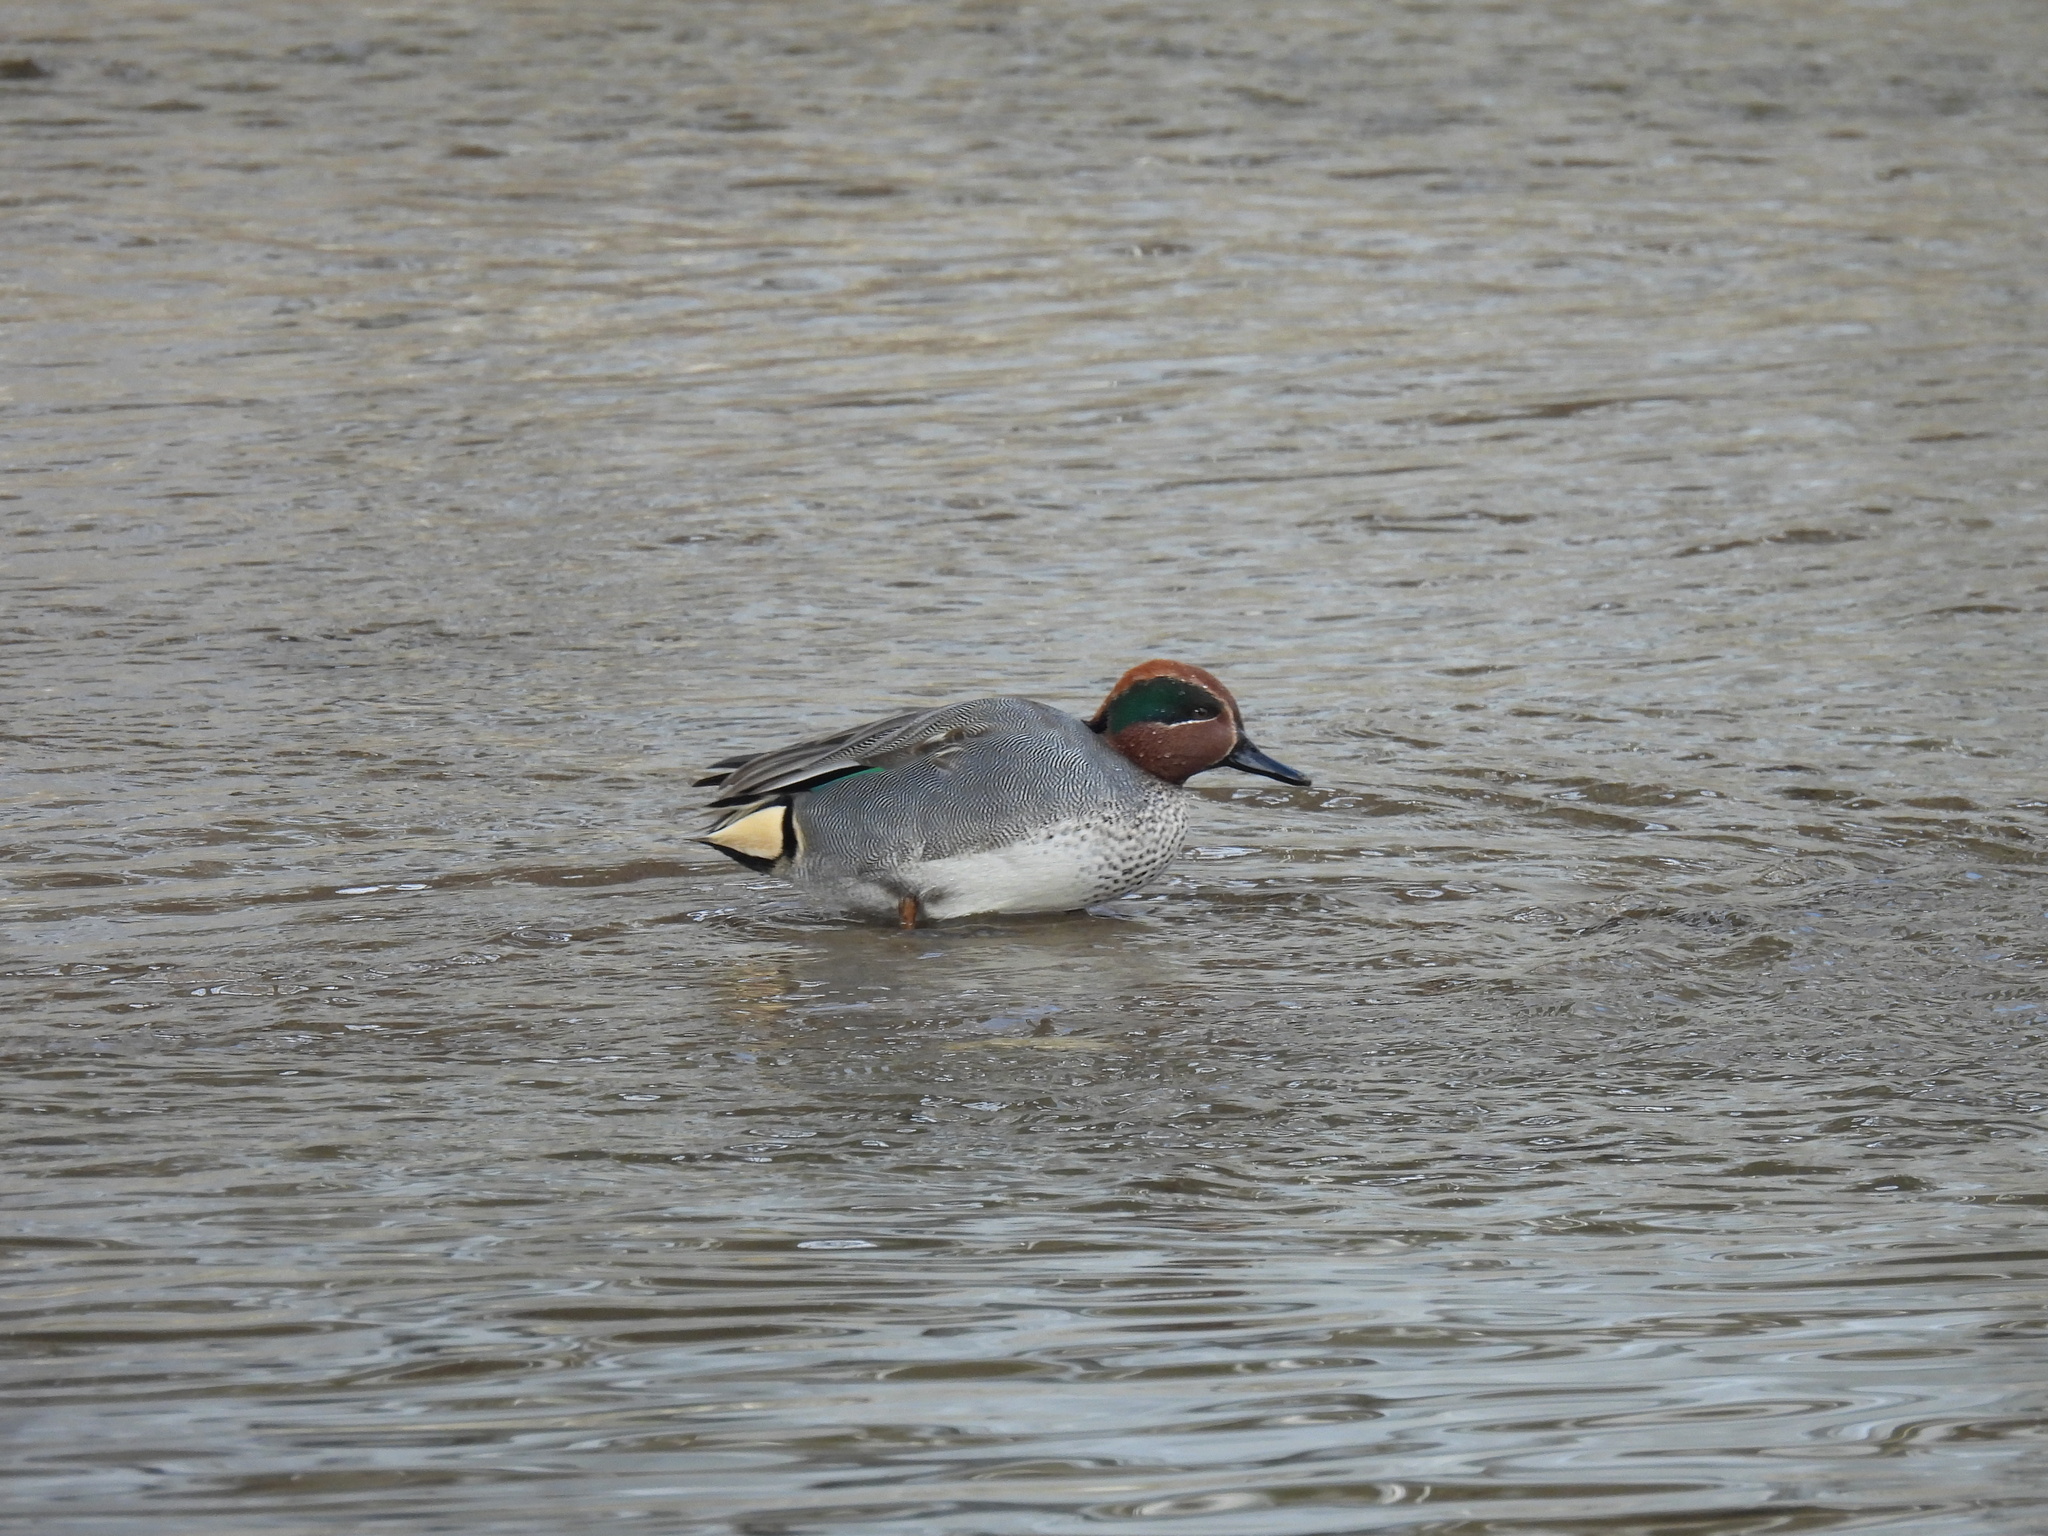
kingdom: Animalia
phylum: Chordata
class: Aves
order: Anseriformes
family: Anatidae
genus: Anas
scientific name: Anas crecca
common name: Eurasian teal
